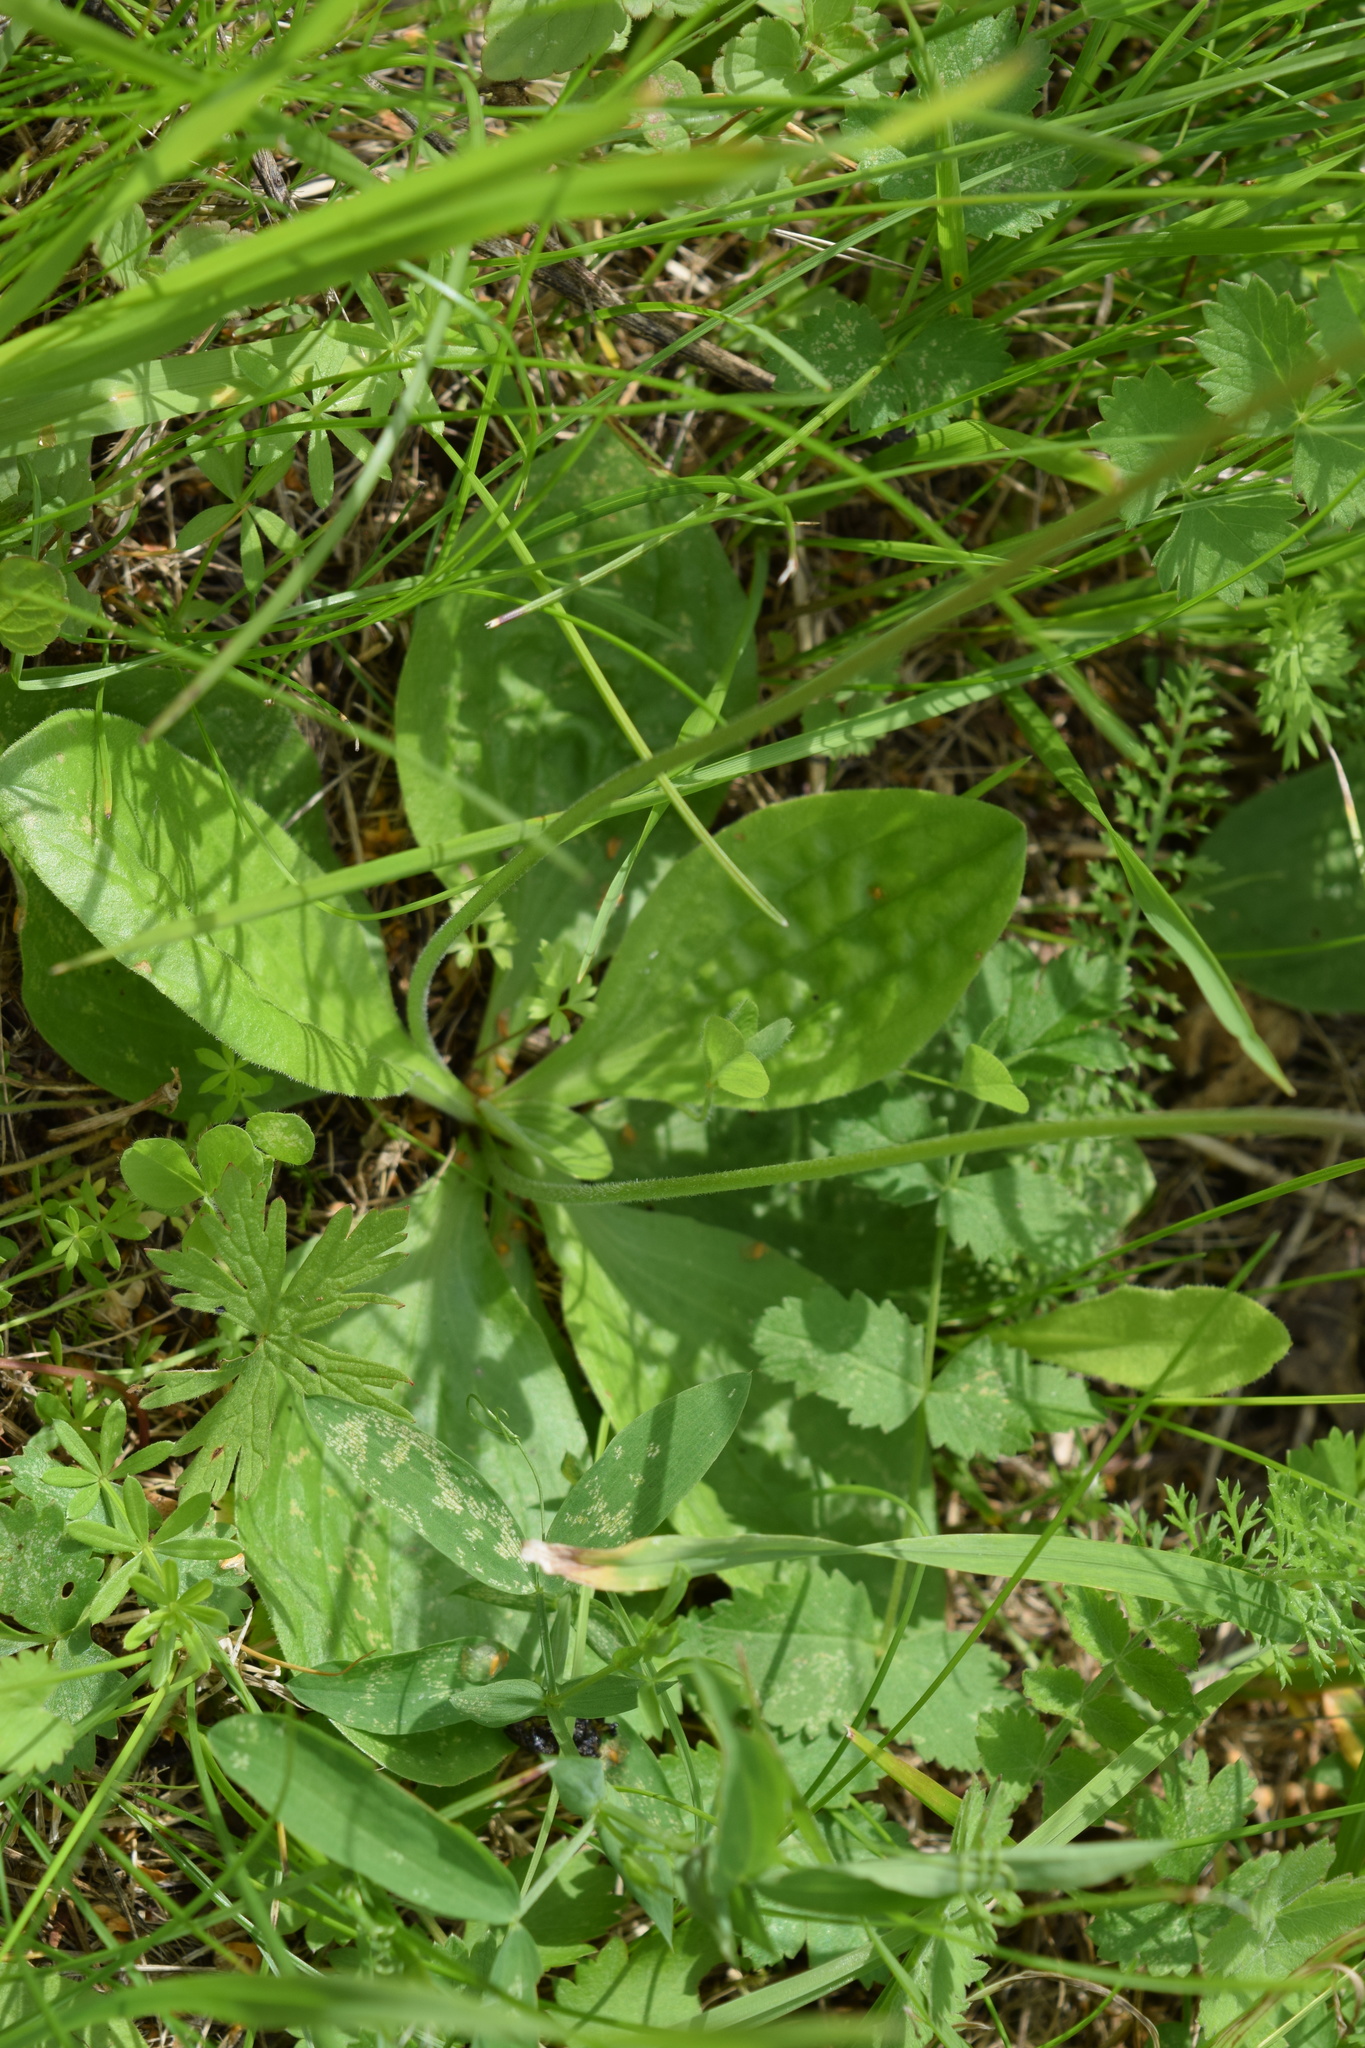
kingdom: Plantae
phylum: Tracheophyta
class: Magnoliopsida
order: Lamiales
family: Plantaginaceae
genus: Plantago
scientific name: Plantago media
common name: Hoary plantain
